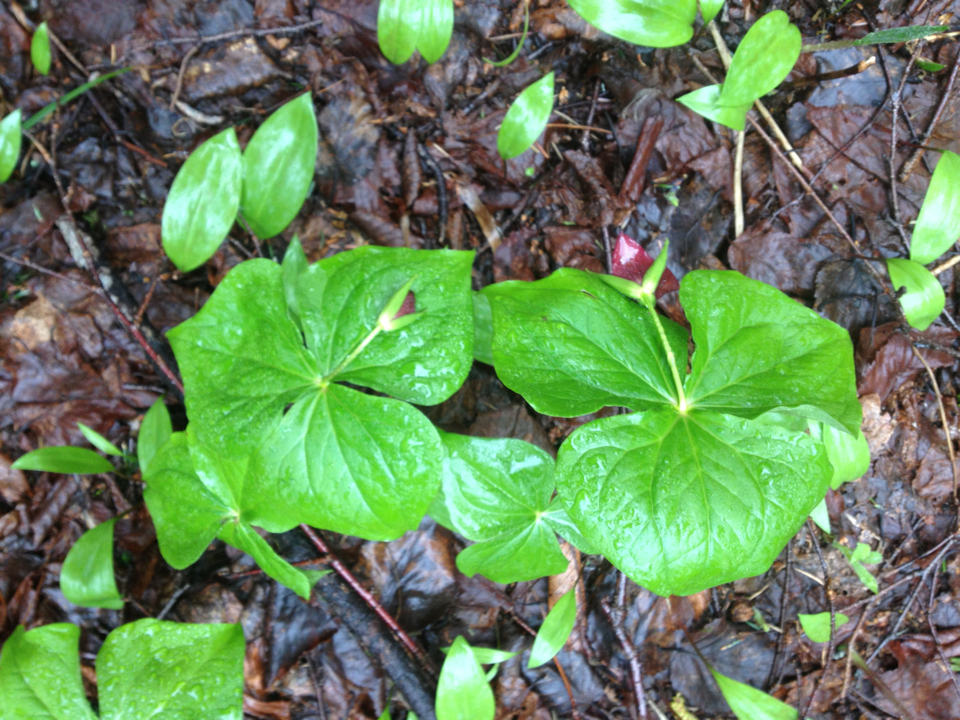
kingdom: Plantae
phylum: Tracheophyta
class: Liliopsida
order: Liliales
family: Melanthiaceae
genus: Trillium
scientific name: Trillium erectum
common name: Purple trillium
